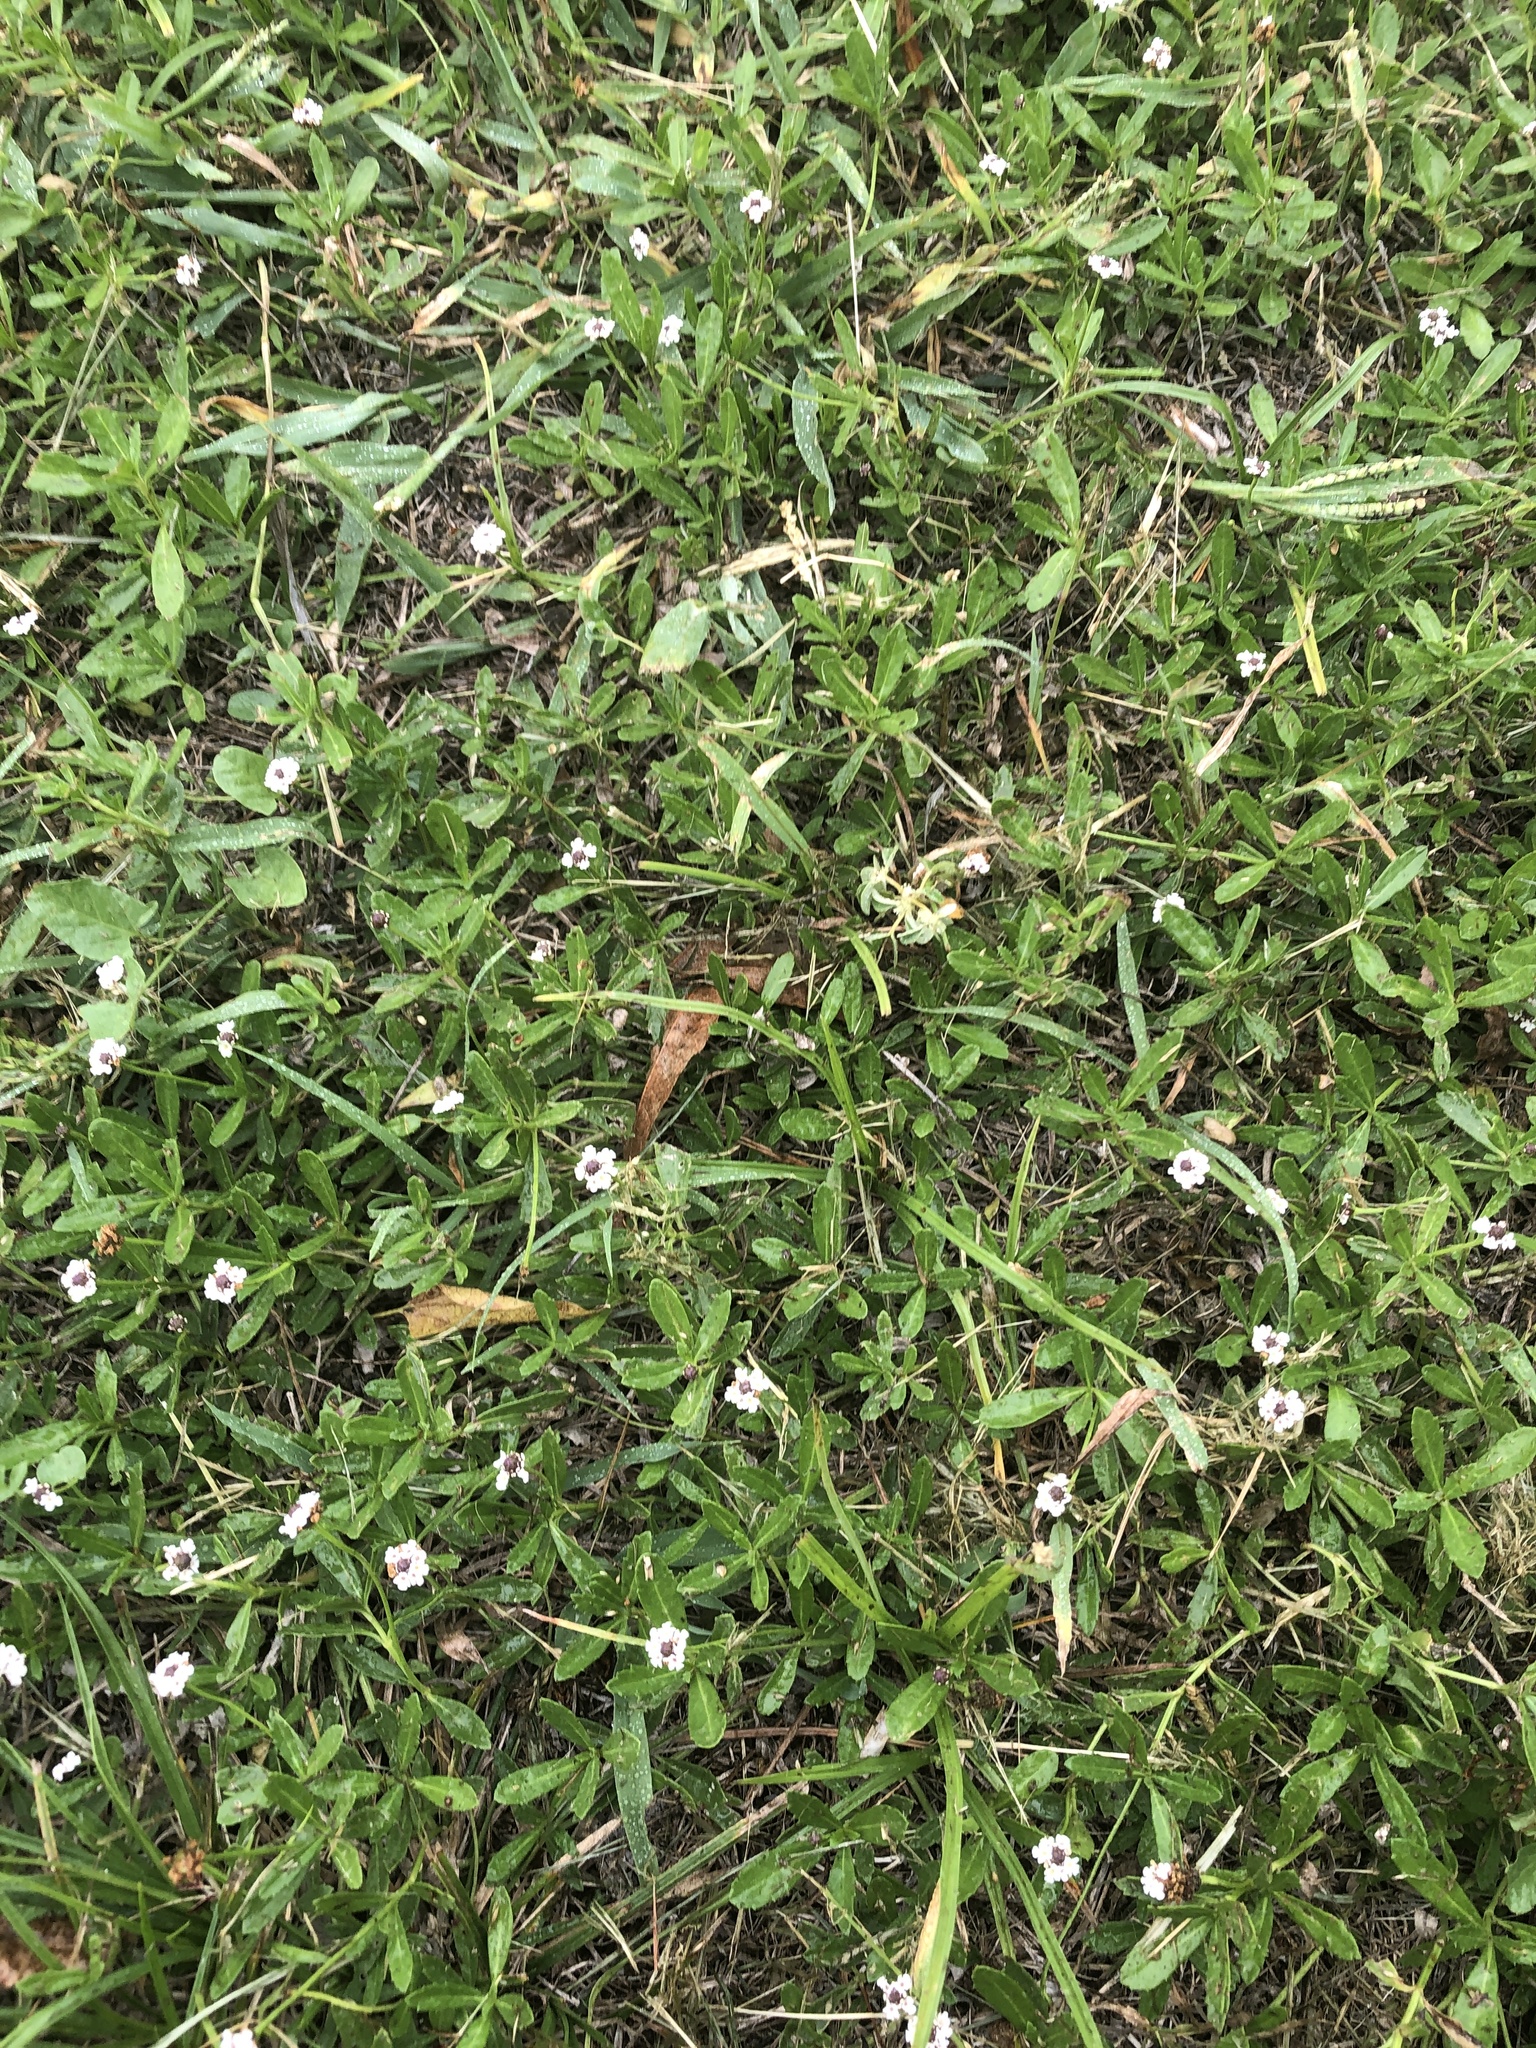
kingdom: Plantae
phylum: Tracheophyta
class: Magnoliopsida
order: Lamiales
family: Verbenaceae
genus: Phyla
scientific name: Phyla nodiflora
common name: Frogfruit
